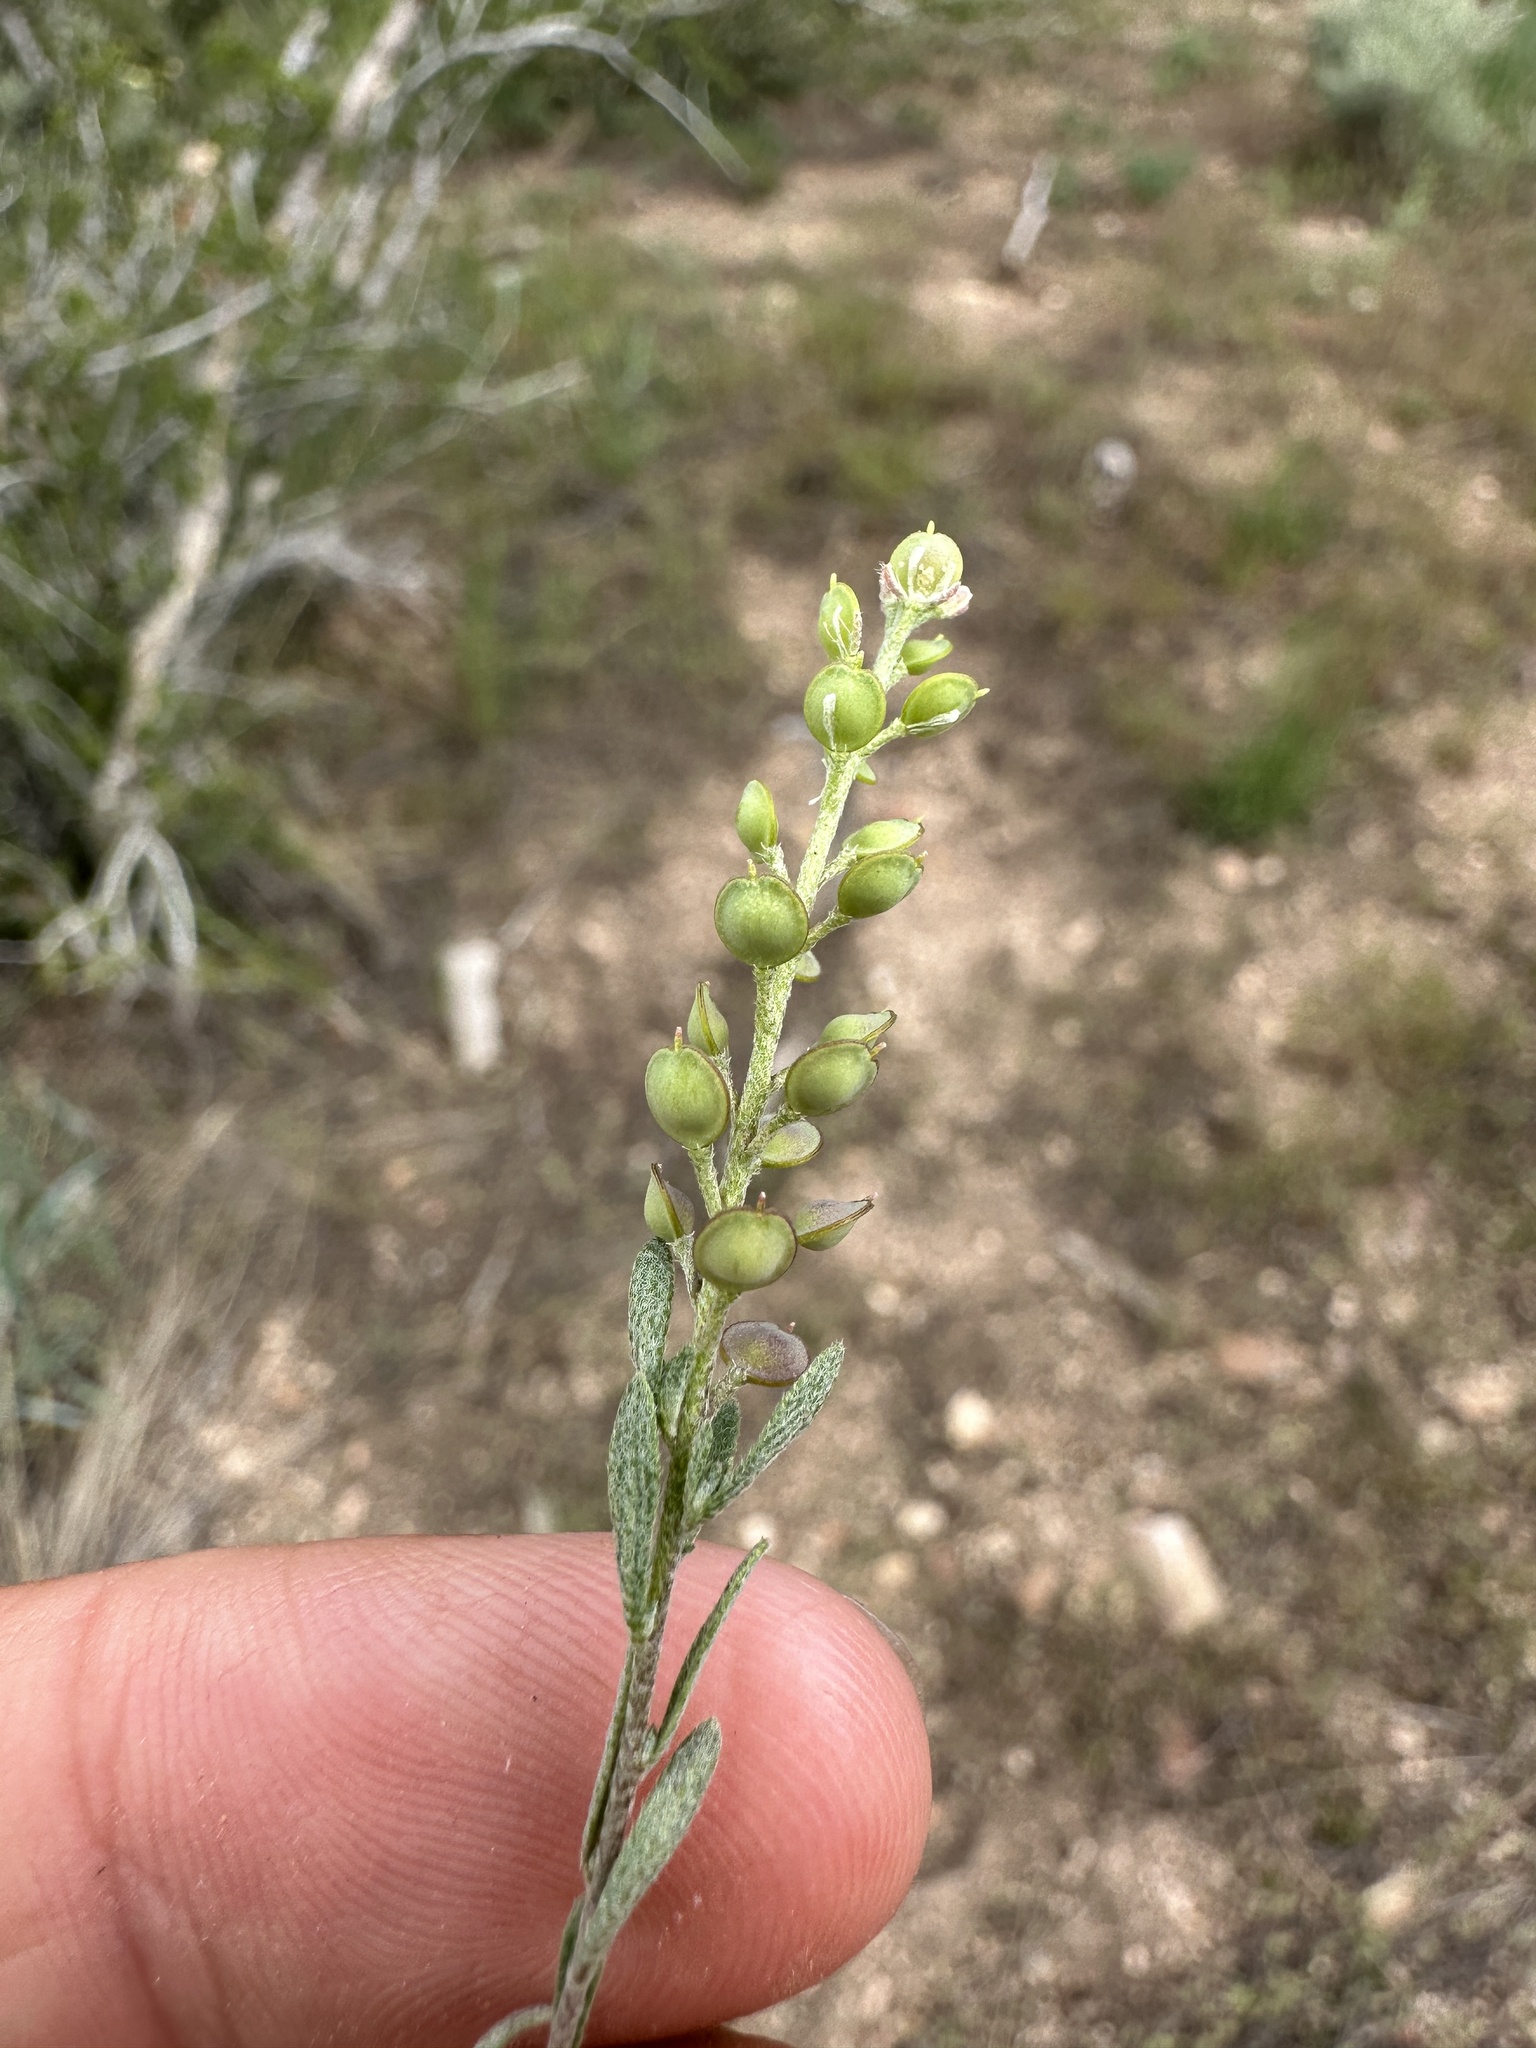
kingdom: Plantae
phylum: Tracheophyta
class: Magnoliopsida
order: Brassicales
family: Brassicaceae
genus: Alyssum
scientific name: Alyssum turkestanicum
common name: Desert alyssum
